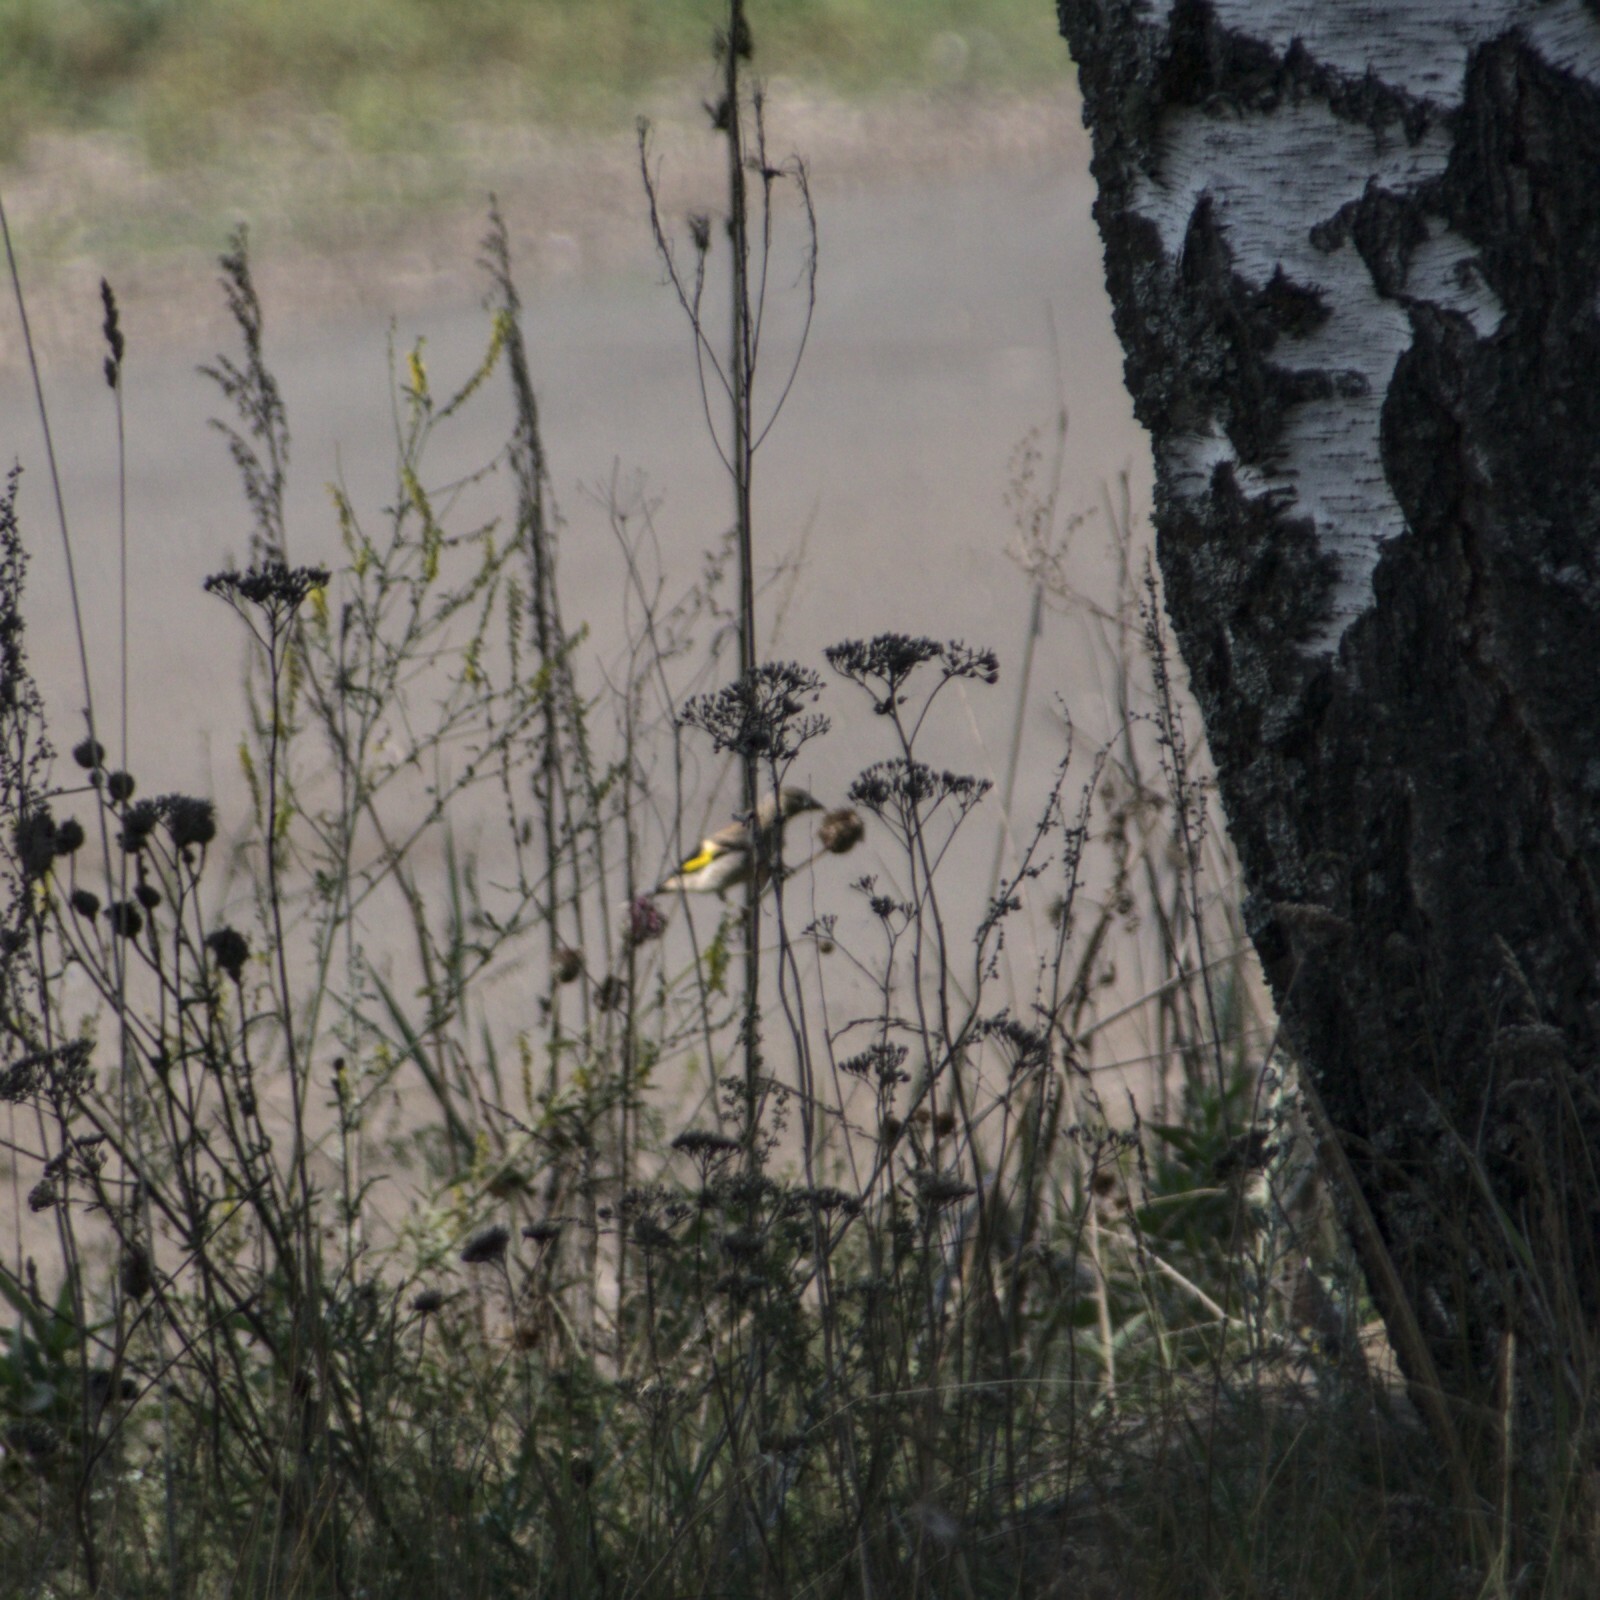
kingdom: Animalia
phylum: Chordata
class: Aves
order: Passeriformes
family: Fringillidae
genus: Carduelis
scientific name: Carduelis carduelis
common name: European goldfinch
